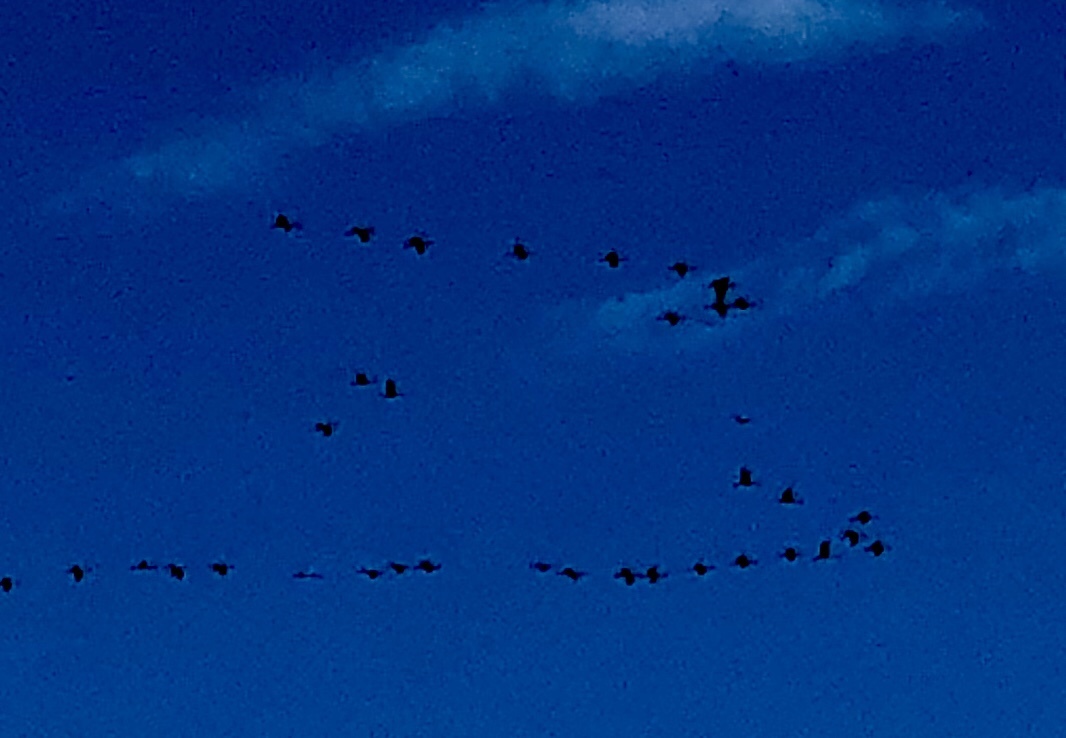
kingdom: Animalia
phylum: Chordata
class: Aves
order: Gruiformes
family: Gruidae
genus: Grus
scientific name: Grus canadensis
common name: Sandhill crane
